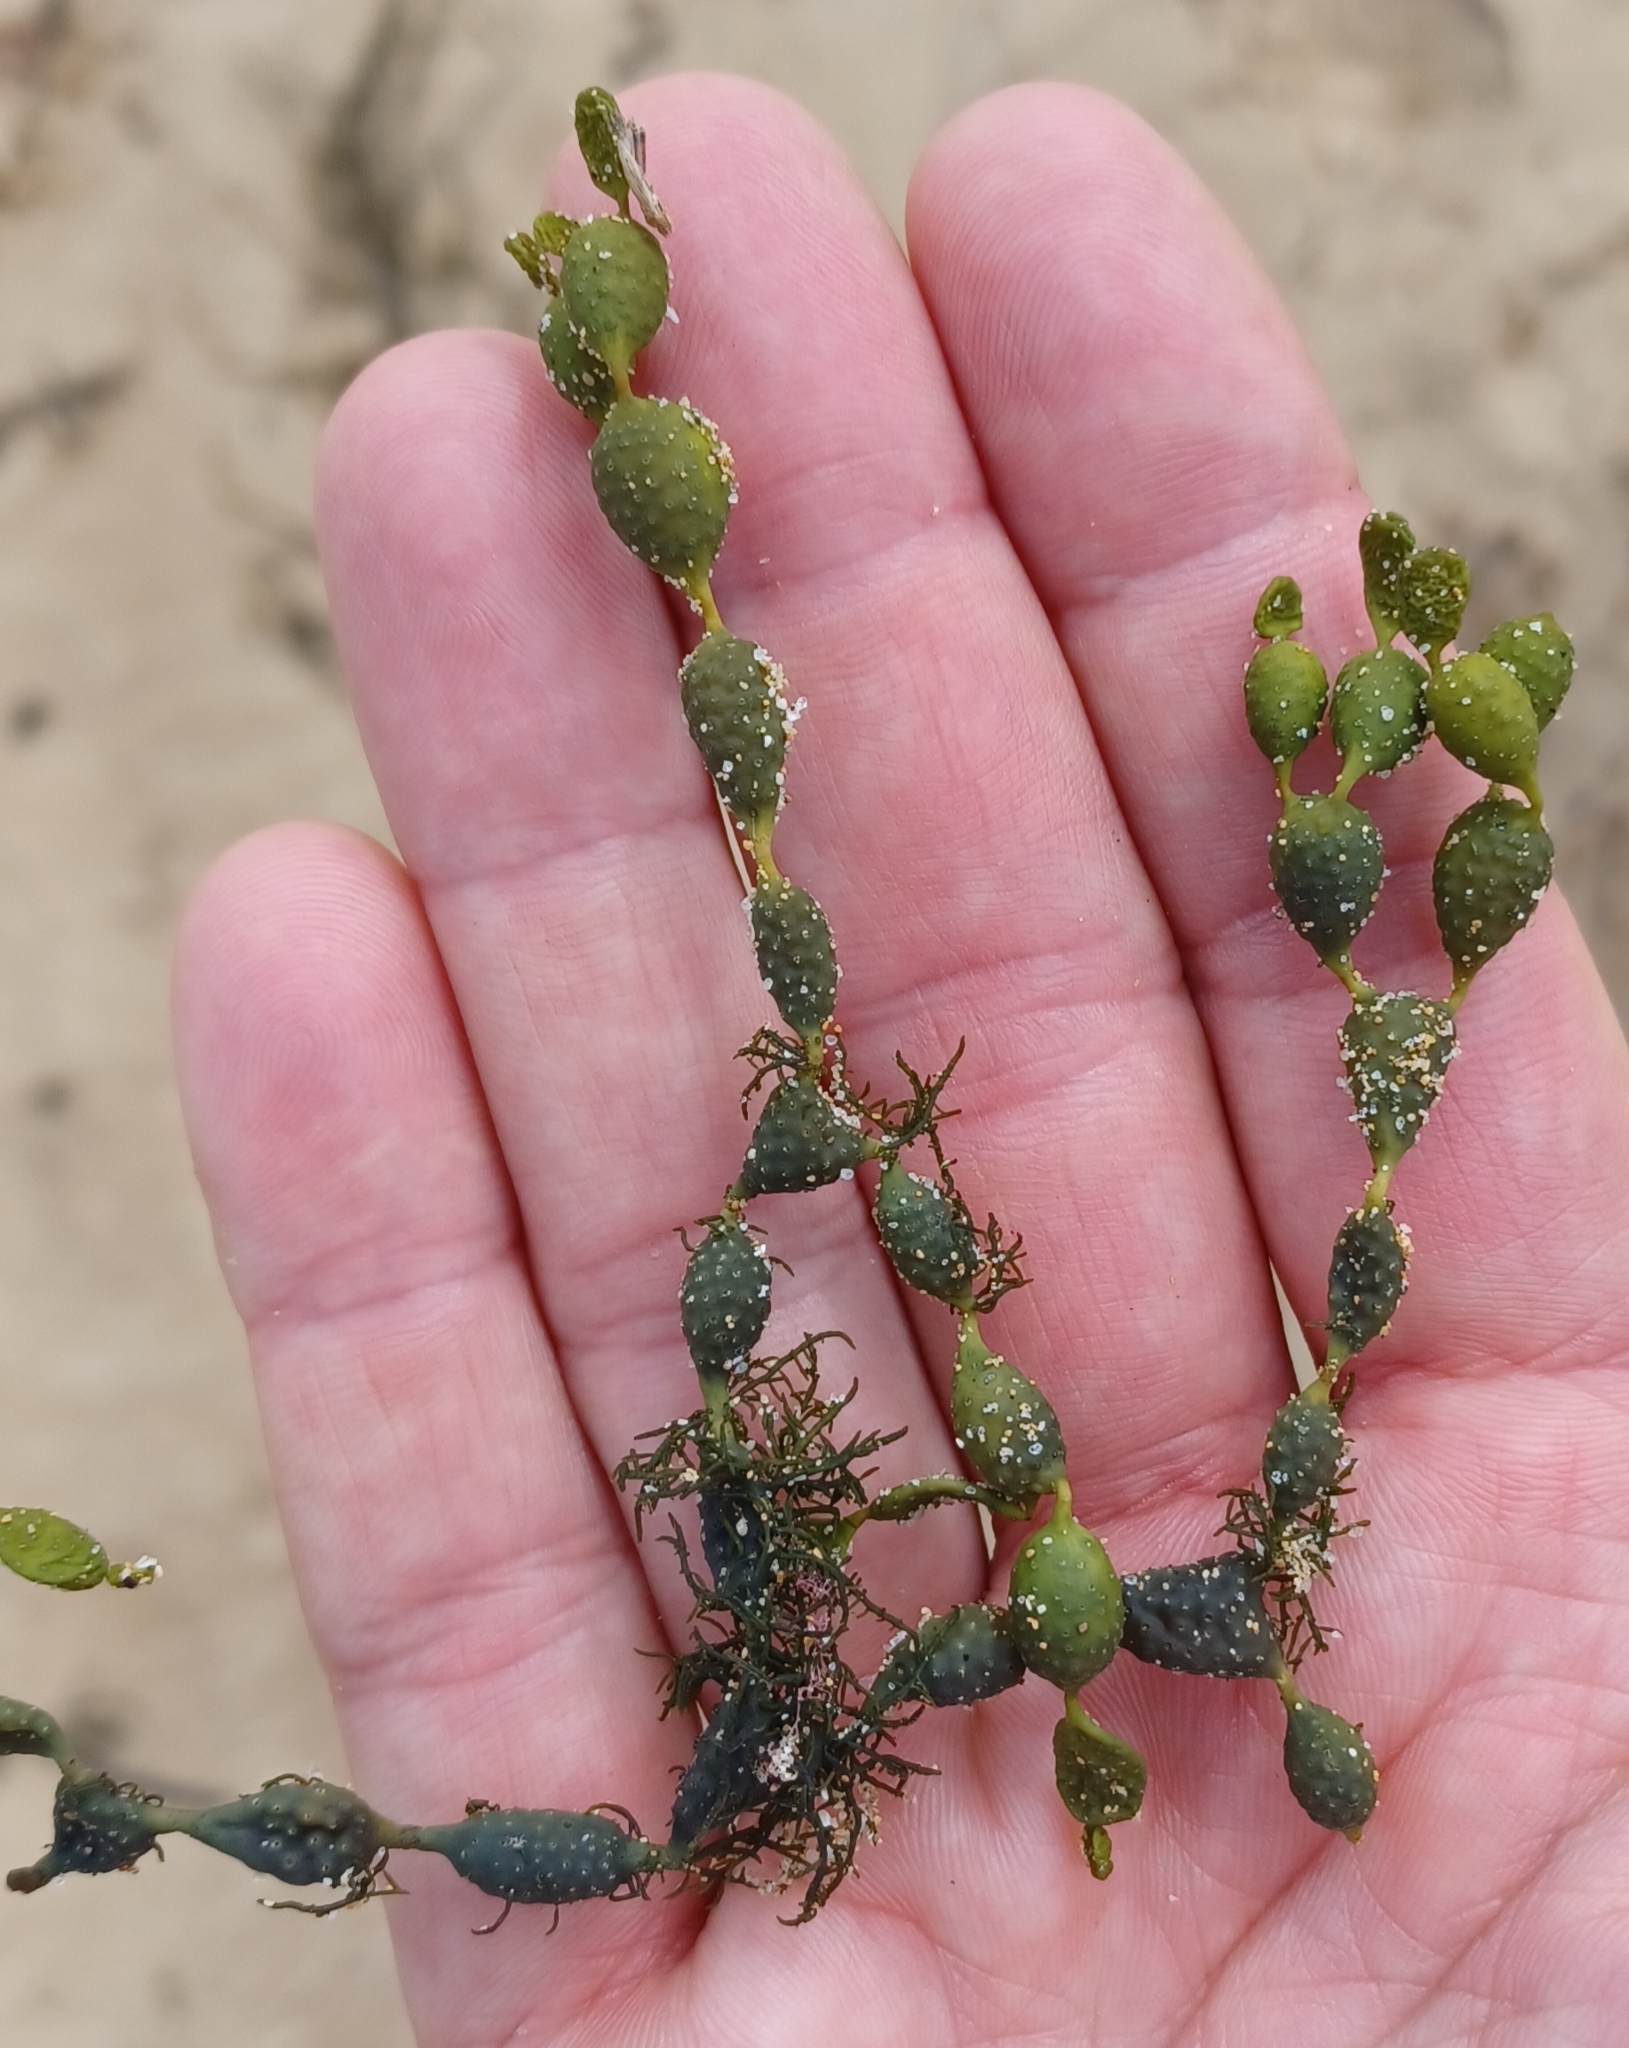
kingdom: Chromista
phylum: Ochrophyta
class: Phaeophyceae
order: Fucales
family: Hormosiraceae
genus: Hormosira
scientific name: Hormosira banksii
